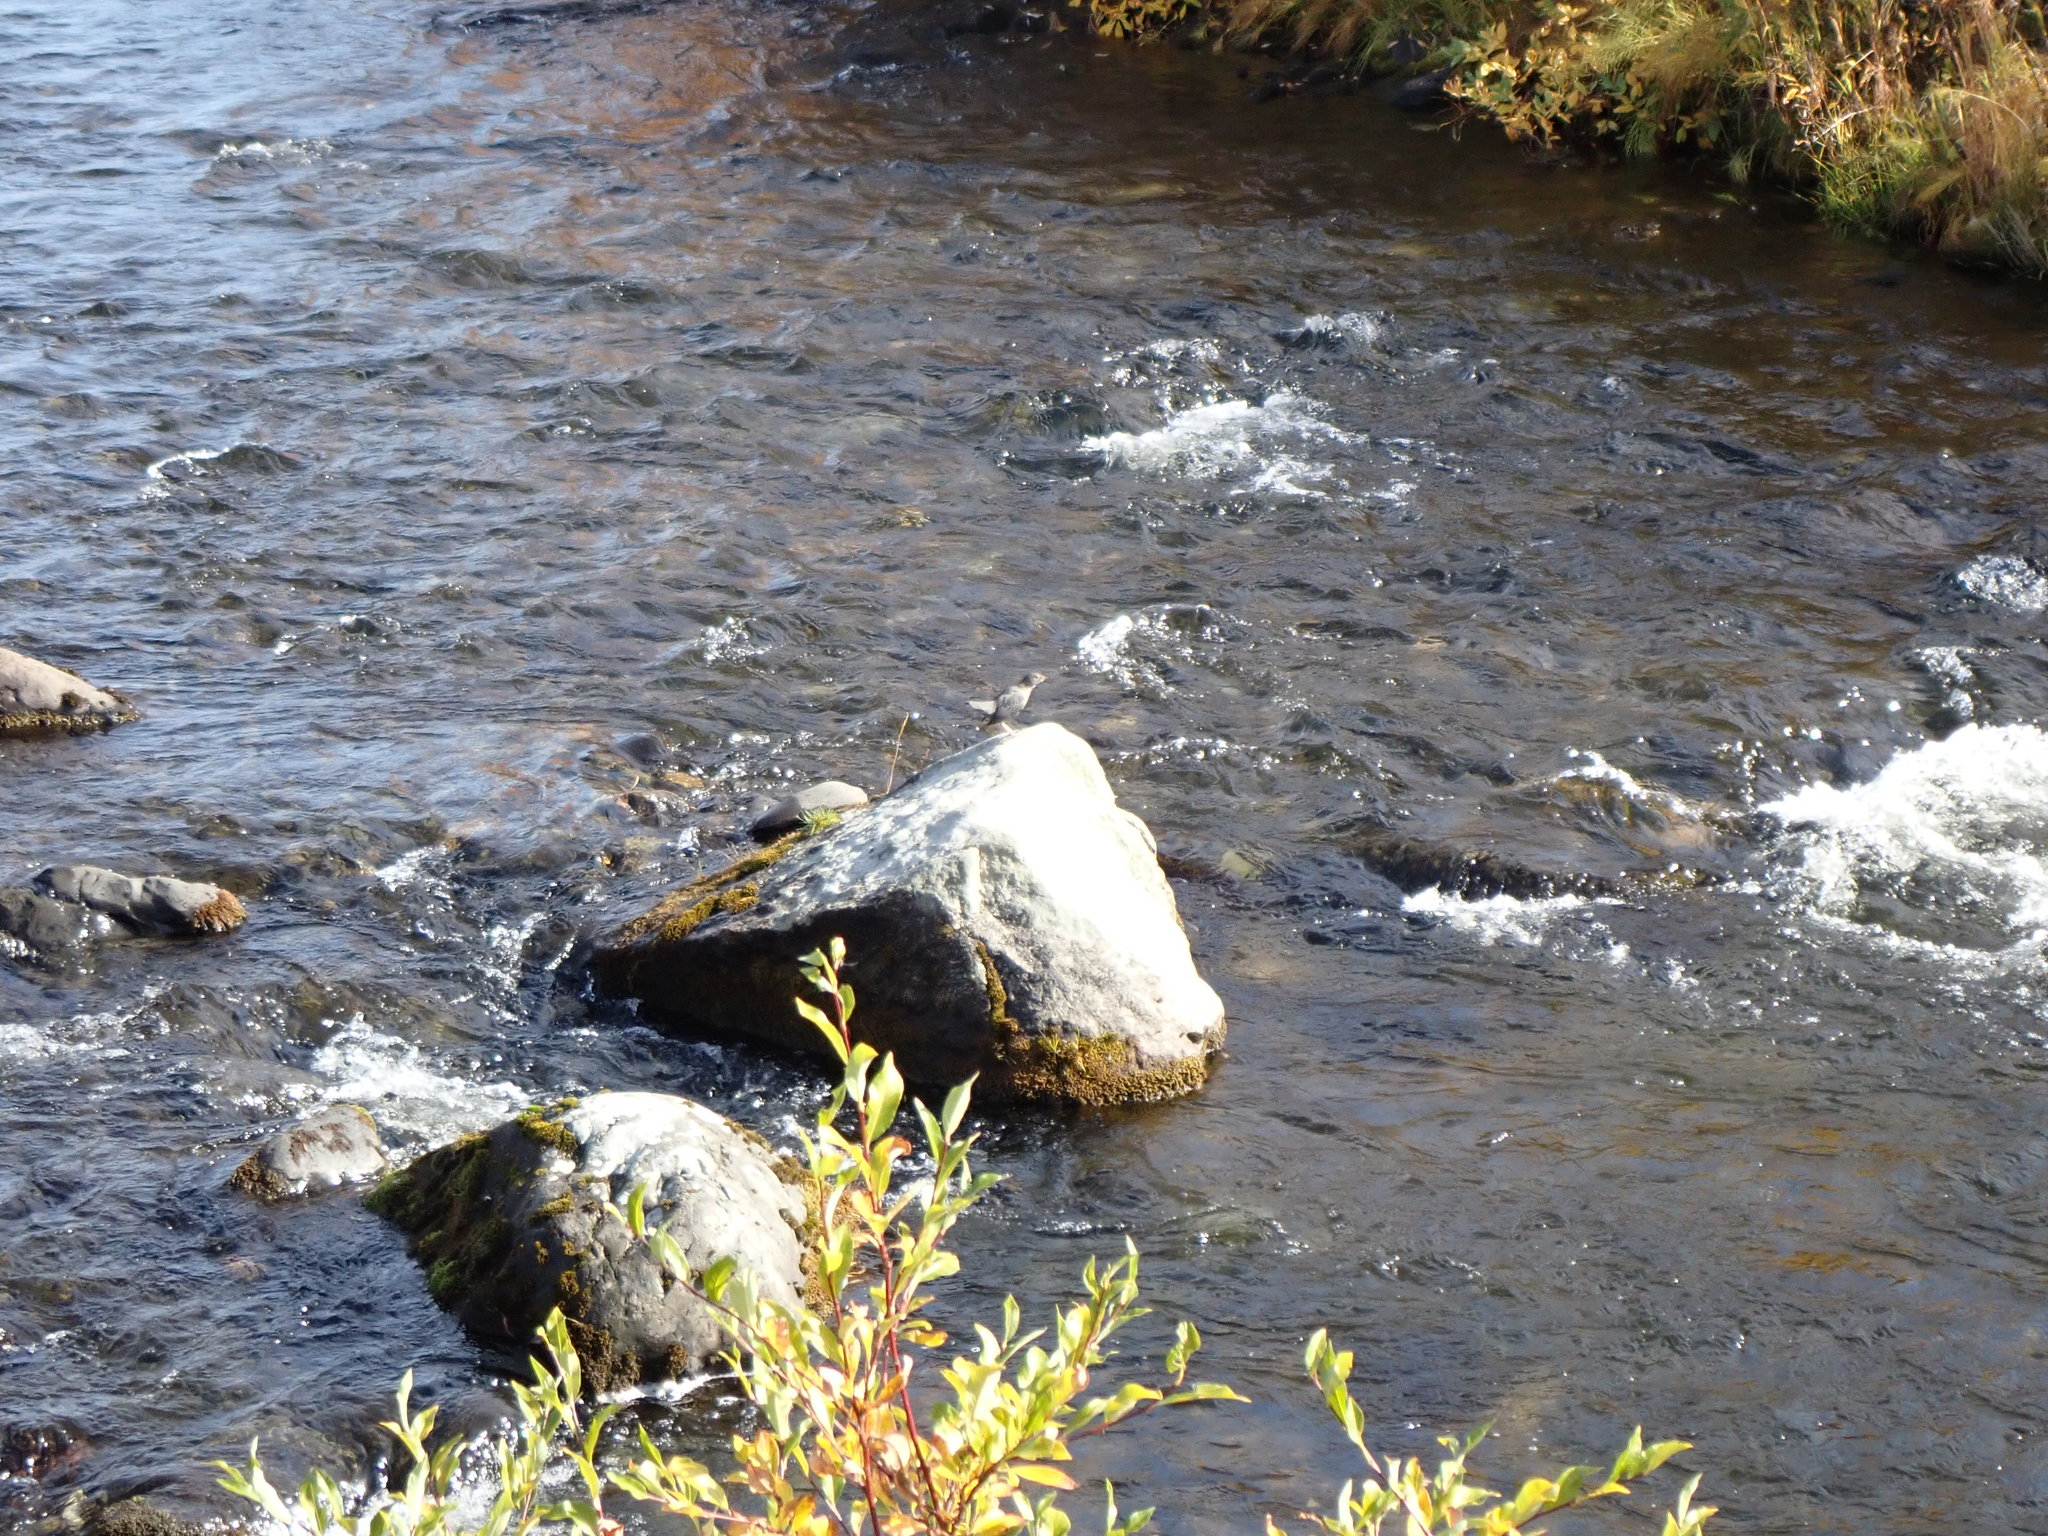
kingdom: Animalia
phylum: Chordata
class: Aves
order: Passeriformes
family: Cinclidae
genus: Cinclus
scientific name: Cinclus mexicanus
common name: American dipper
